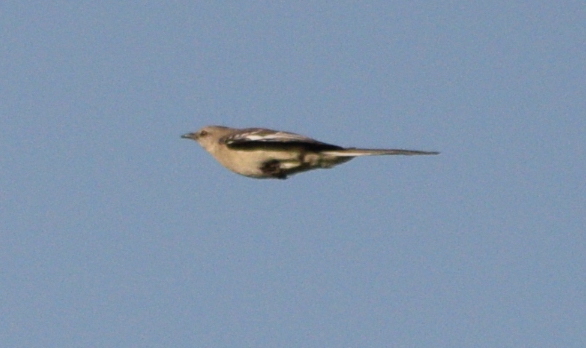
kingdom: Animalia
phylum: Chordata
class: Aves
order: Passeriformes
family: Mimidae
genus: Mimus
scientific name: Mimus polyglottos
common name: Northern mockingbird
